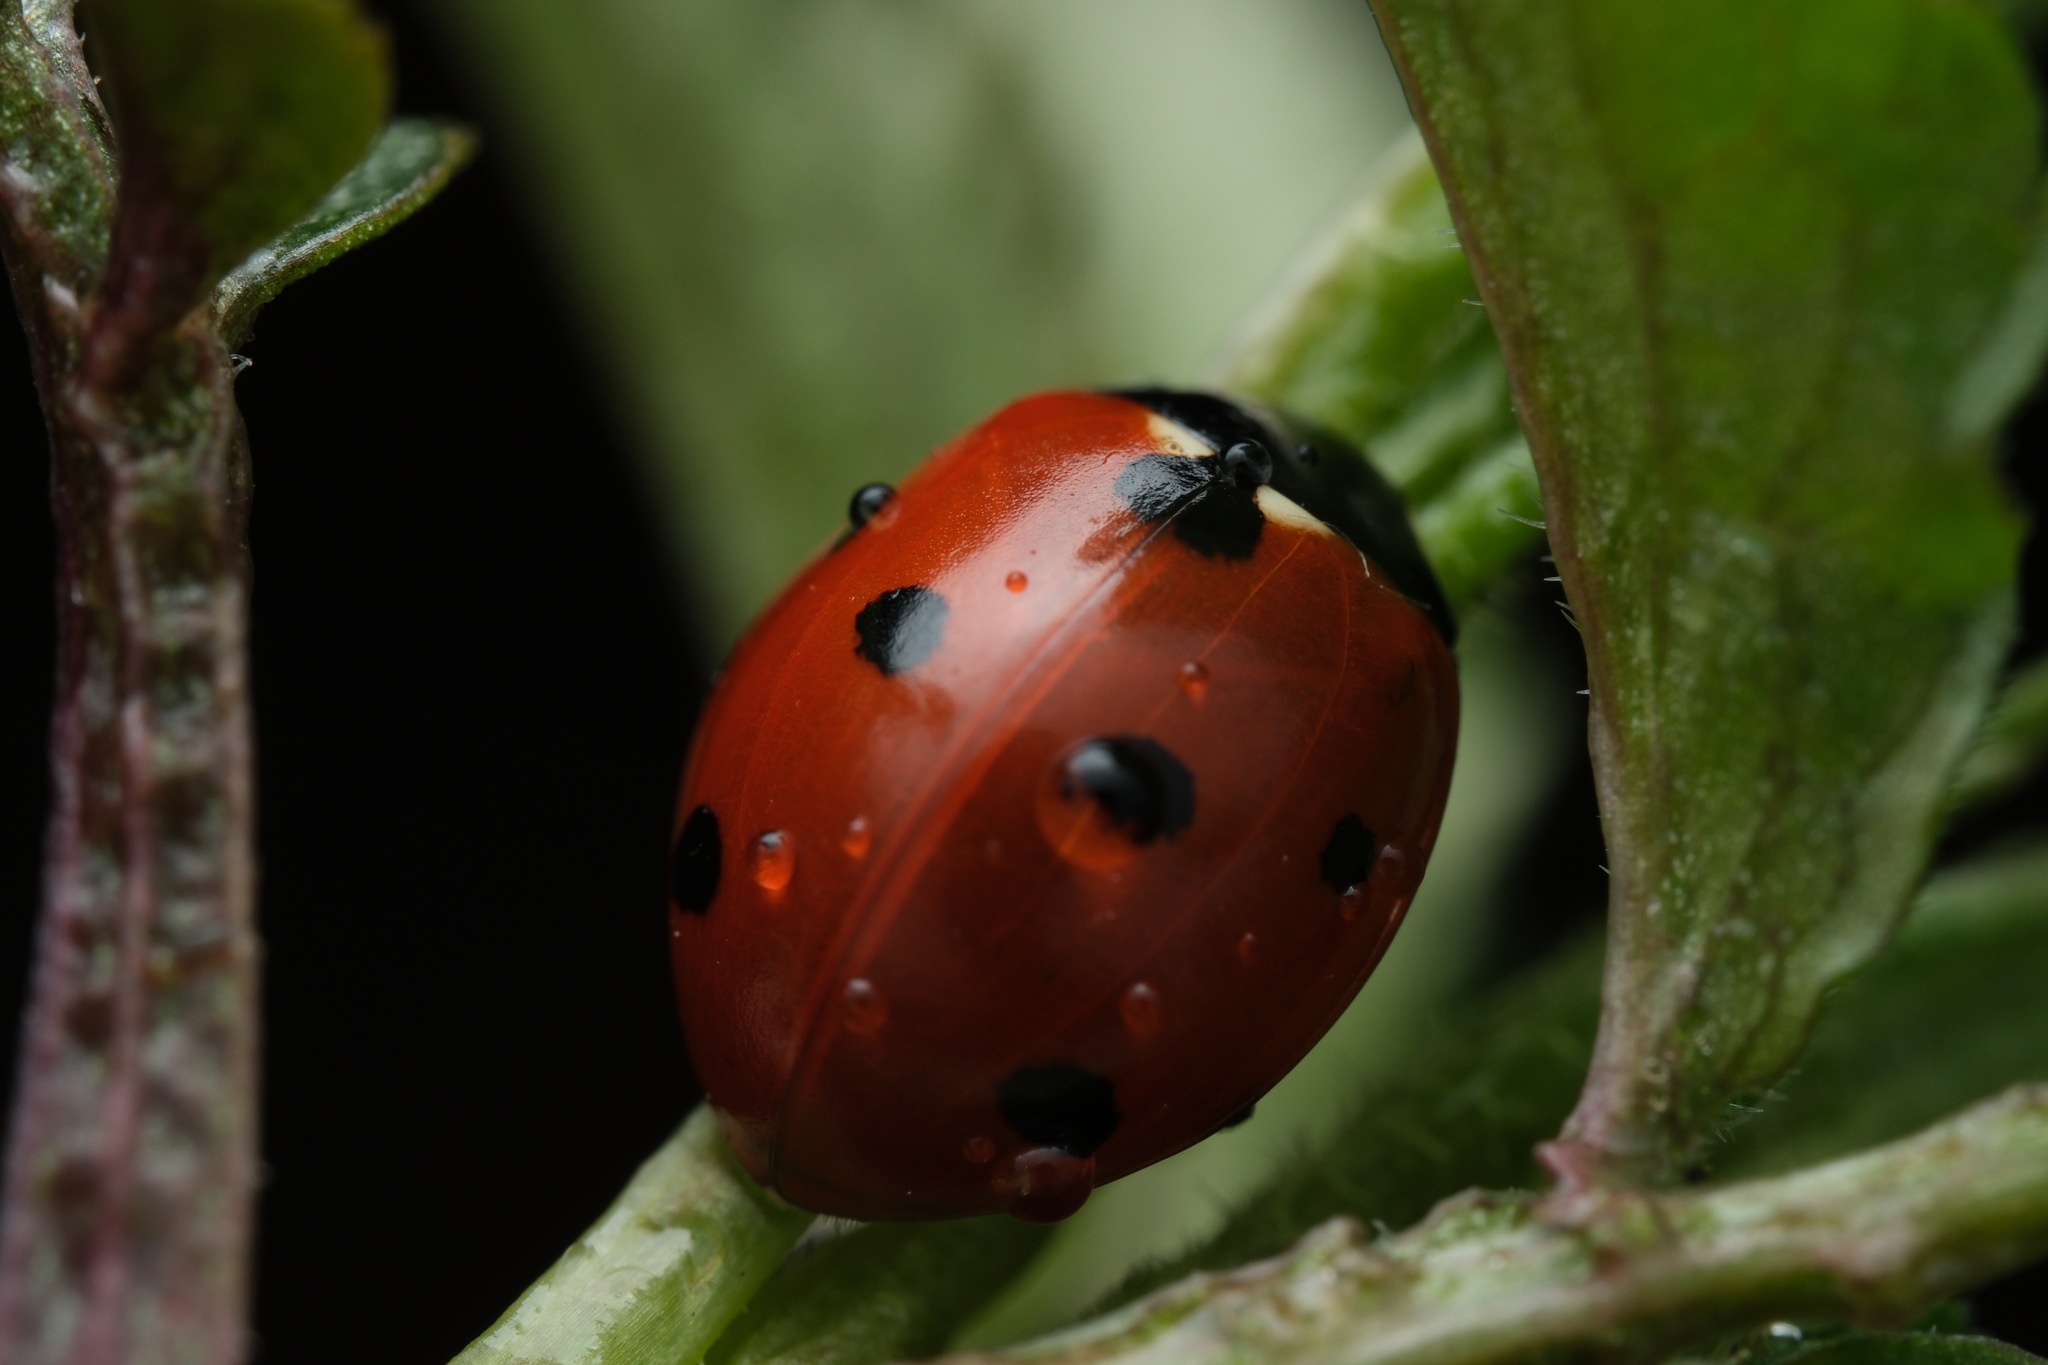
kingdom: Animalia
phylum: Arthropoda
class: Insecta
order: Coleoptera
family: Coccinellidae
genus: Coccinella
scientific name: Coccinella septempunctata
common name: Sevenspotted lady beetle
